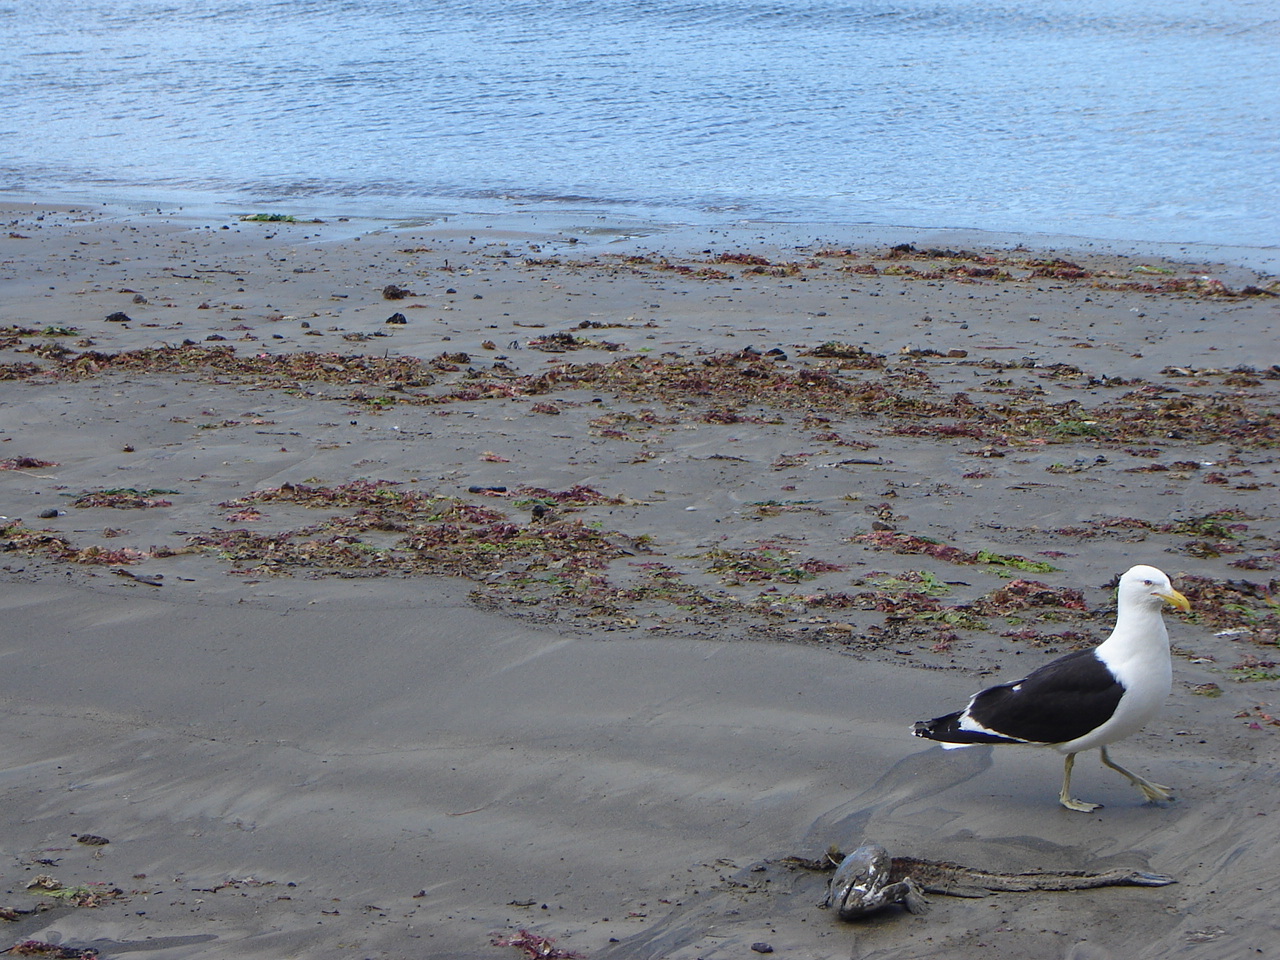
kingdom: Animalia
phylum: Chordata
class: Aves
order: Charadriiformes
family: Laridae
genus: Larus
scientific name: Larus dominicanus
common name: Kelp gull
